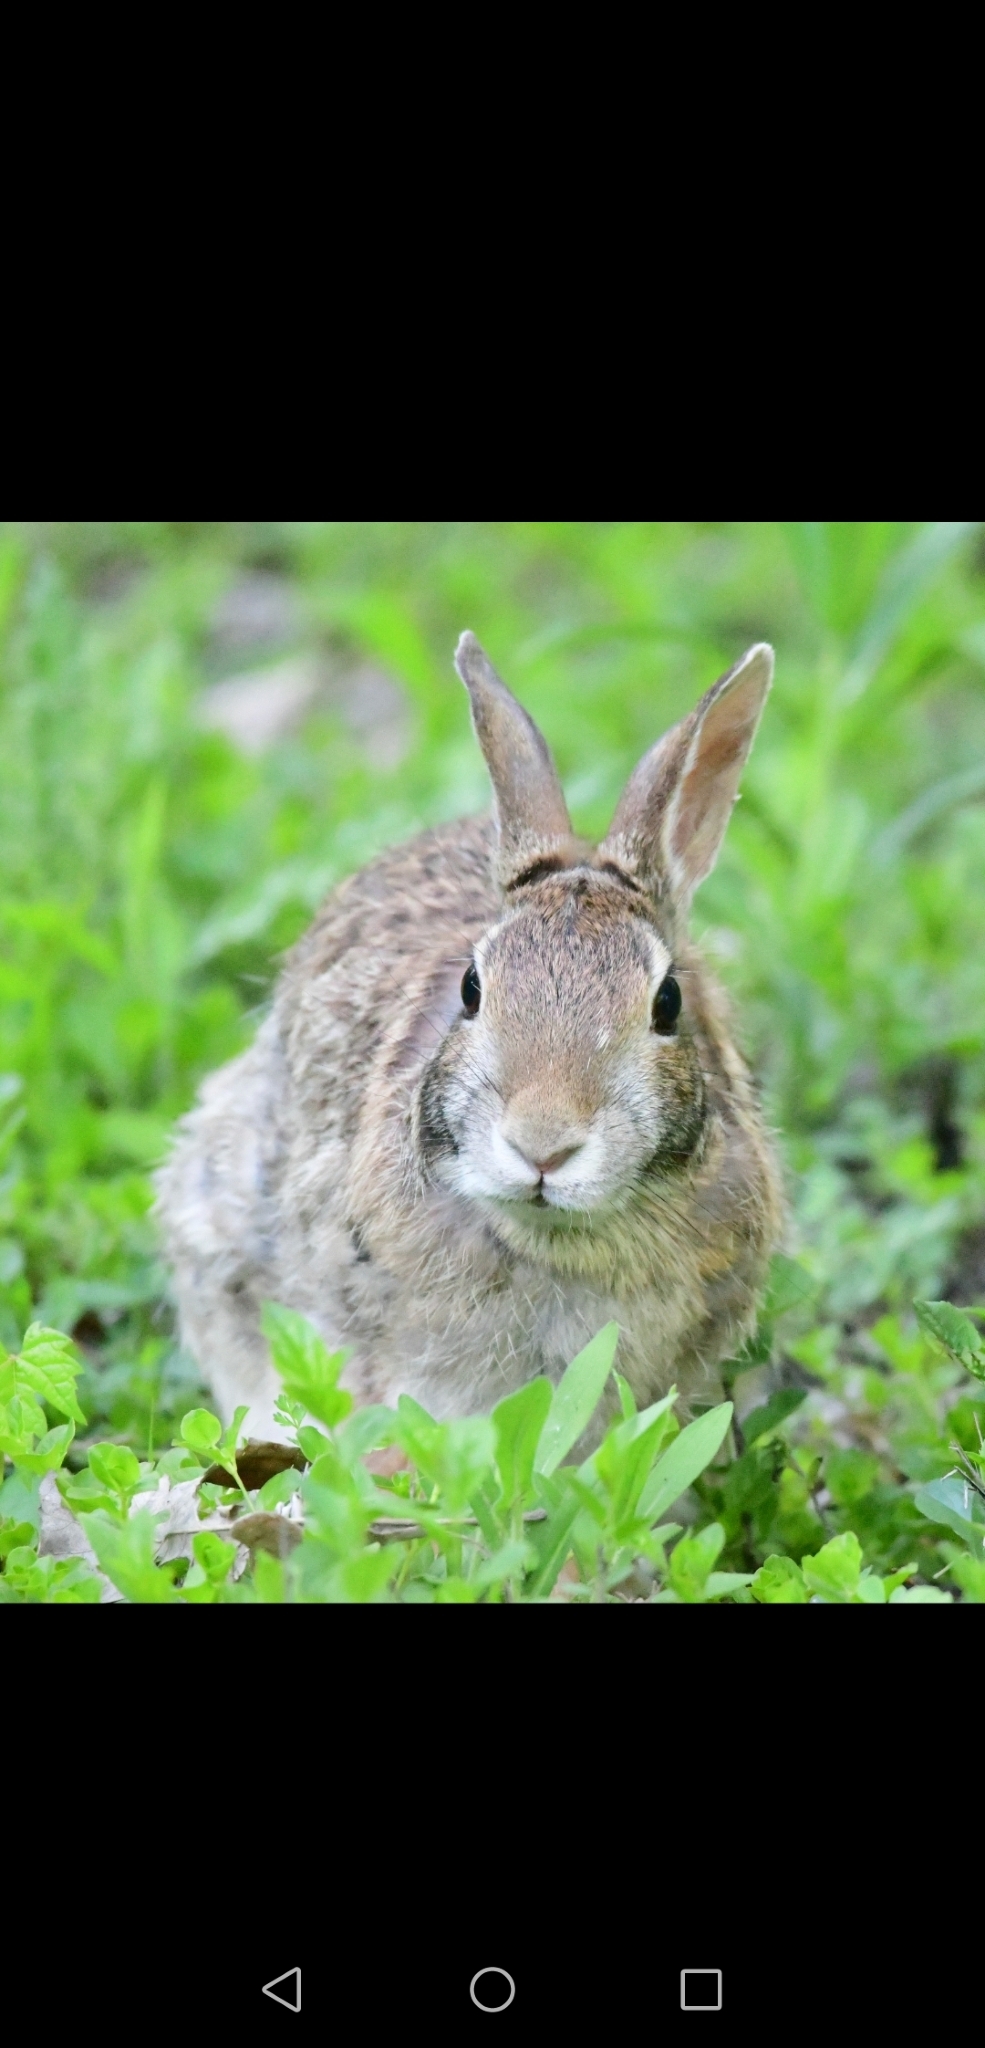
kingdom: Animalia
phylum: Chordata
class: Mammalia
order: Lagomorpha
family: Leporidae
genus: Sylvilagus
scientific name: Sylvilagus floridanus
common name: Eastern cottontail
